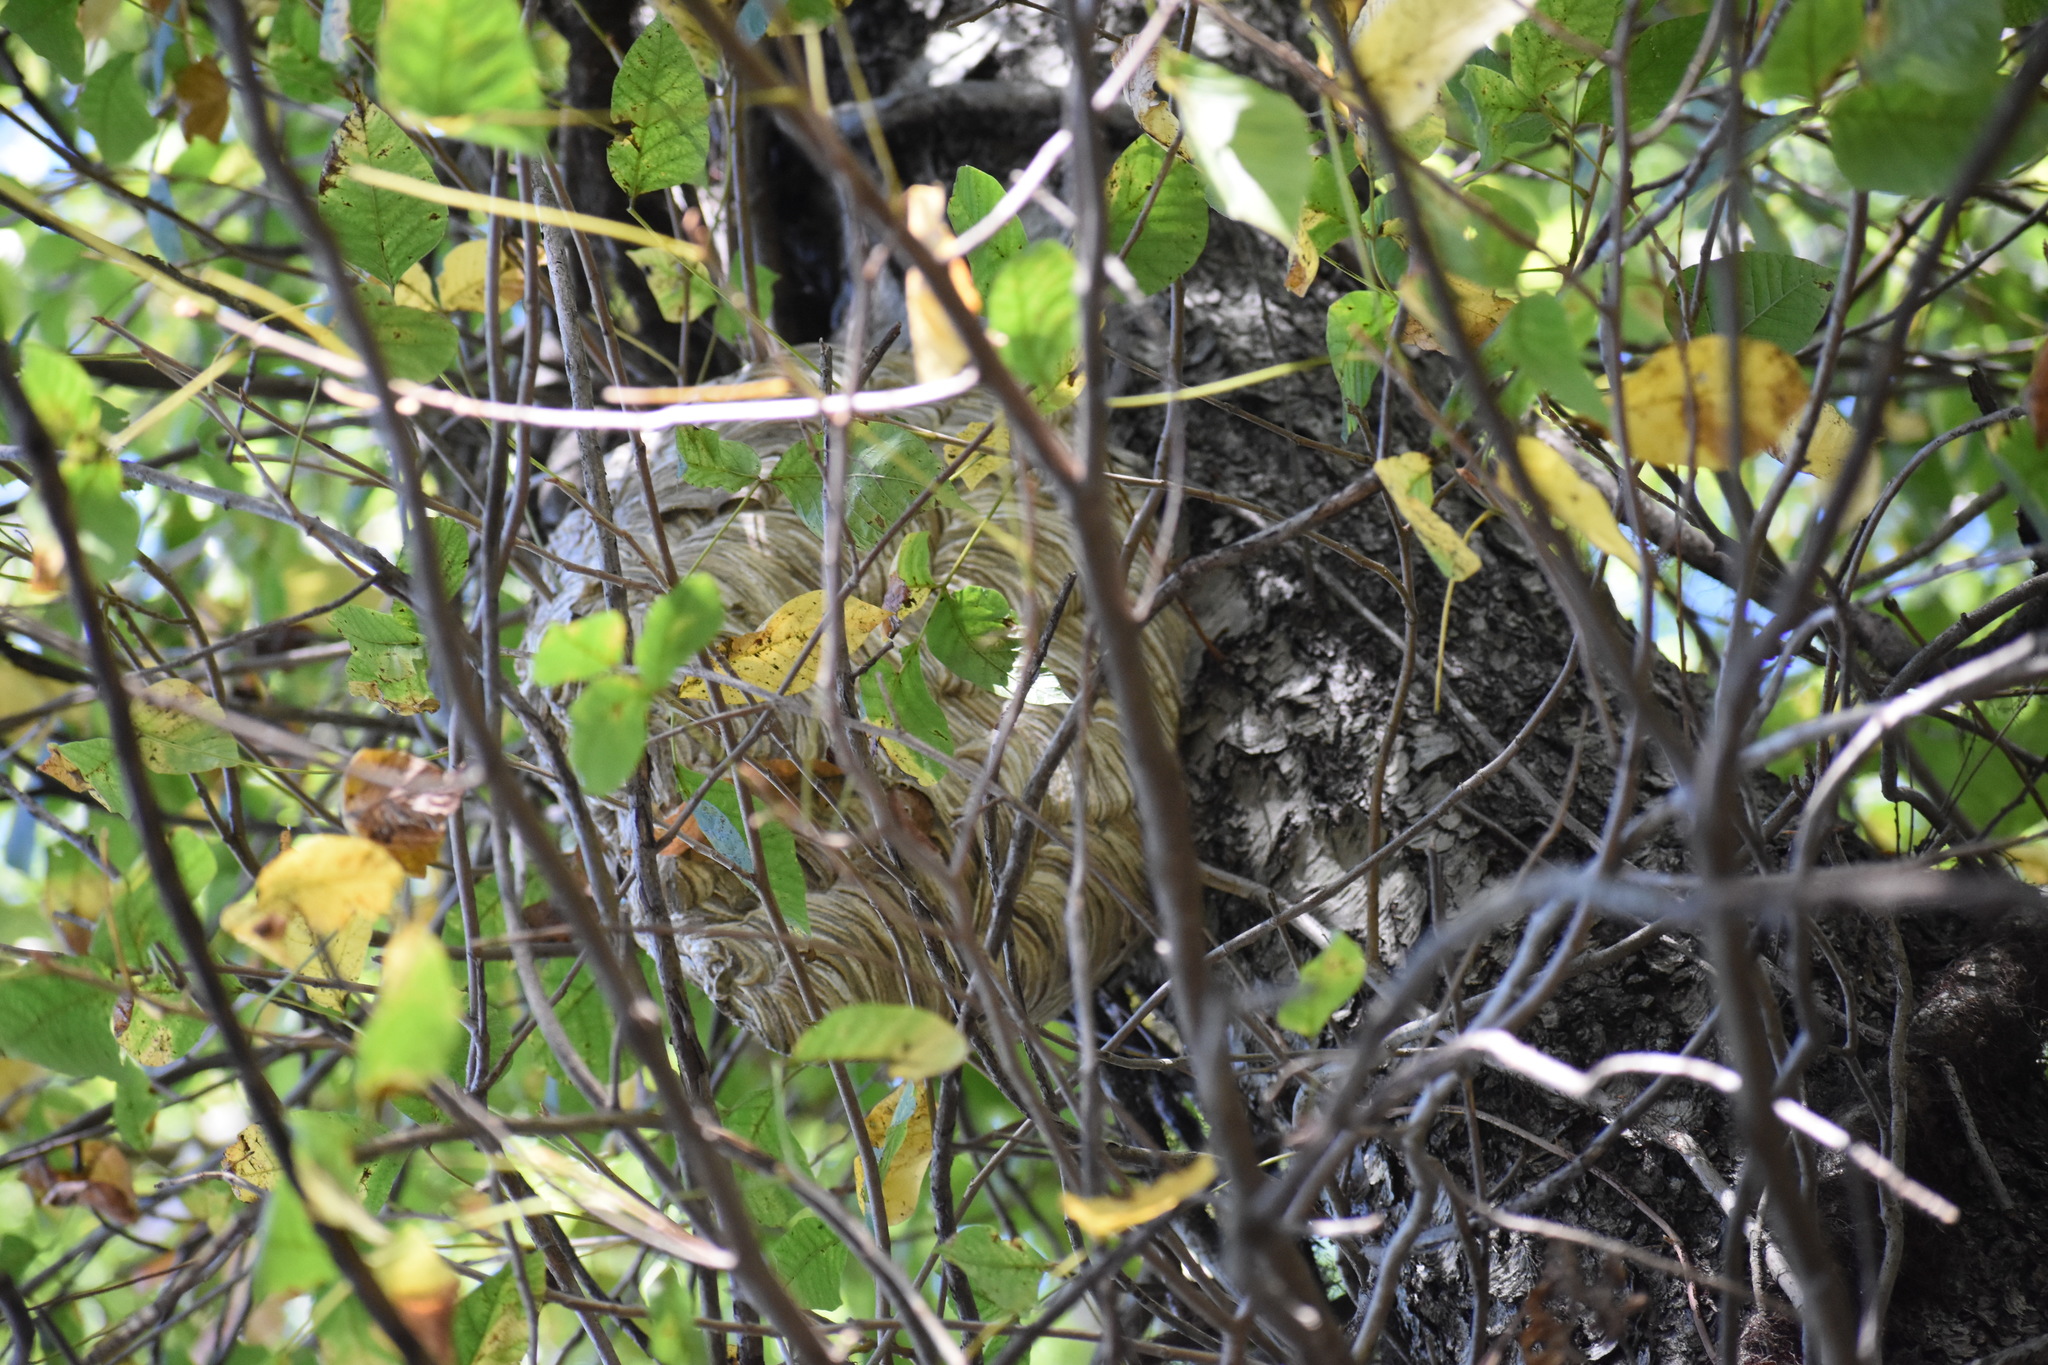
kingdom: Animalia
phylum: Arthropoda
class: Insecta
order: Hymenoptera
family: Vespidae
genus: Dolichovespula
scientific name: Dolichovespula maculata
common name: Bald-faced hornet
